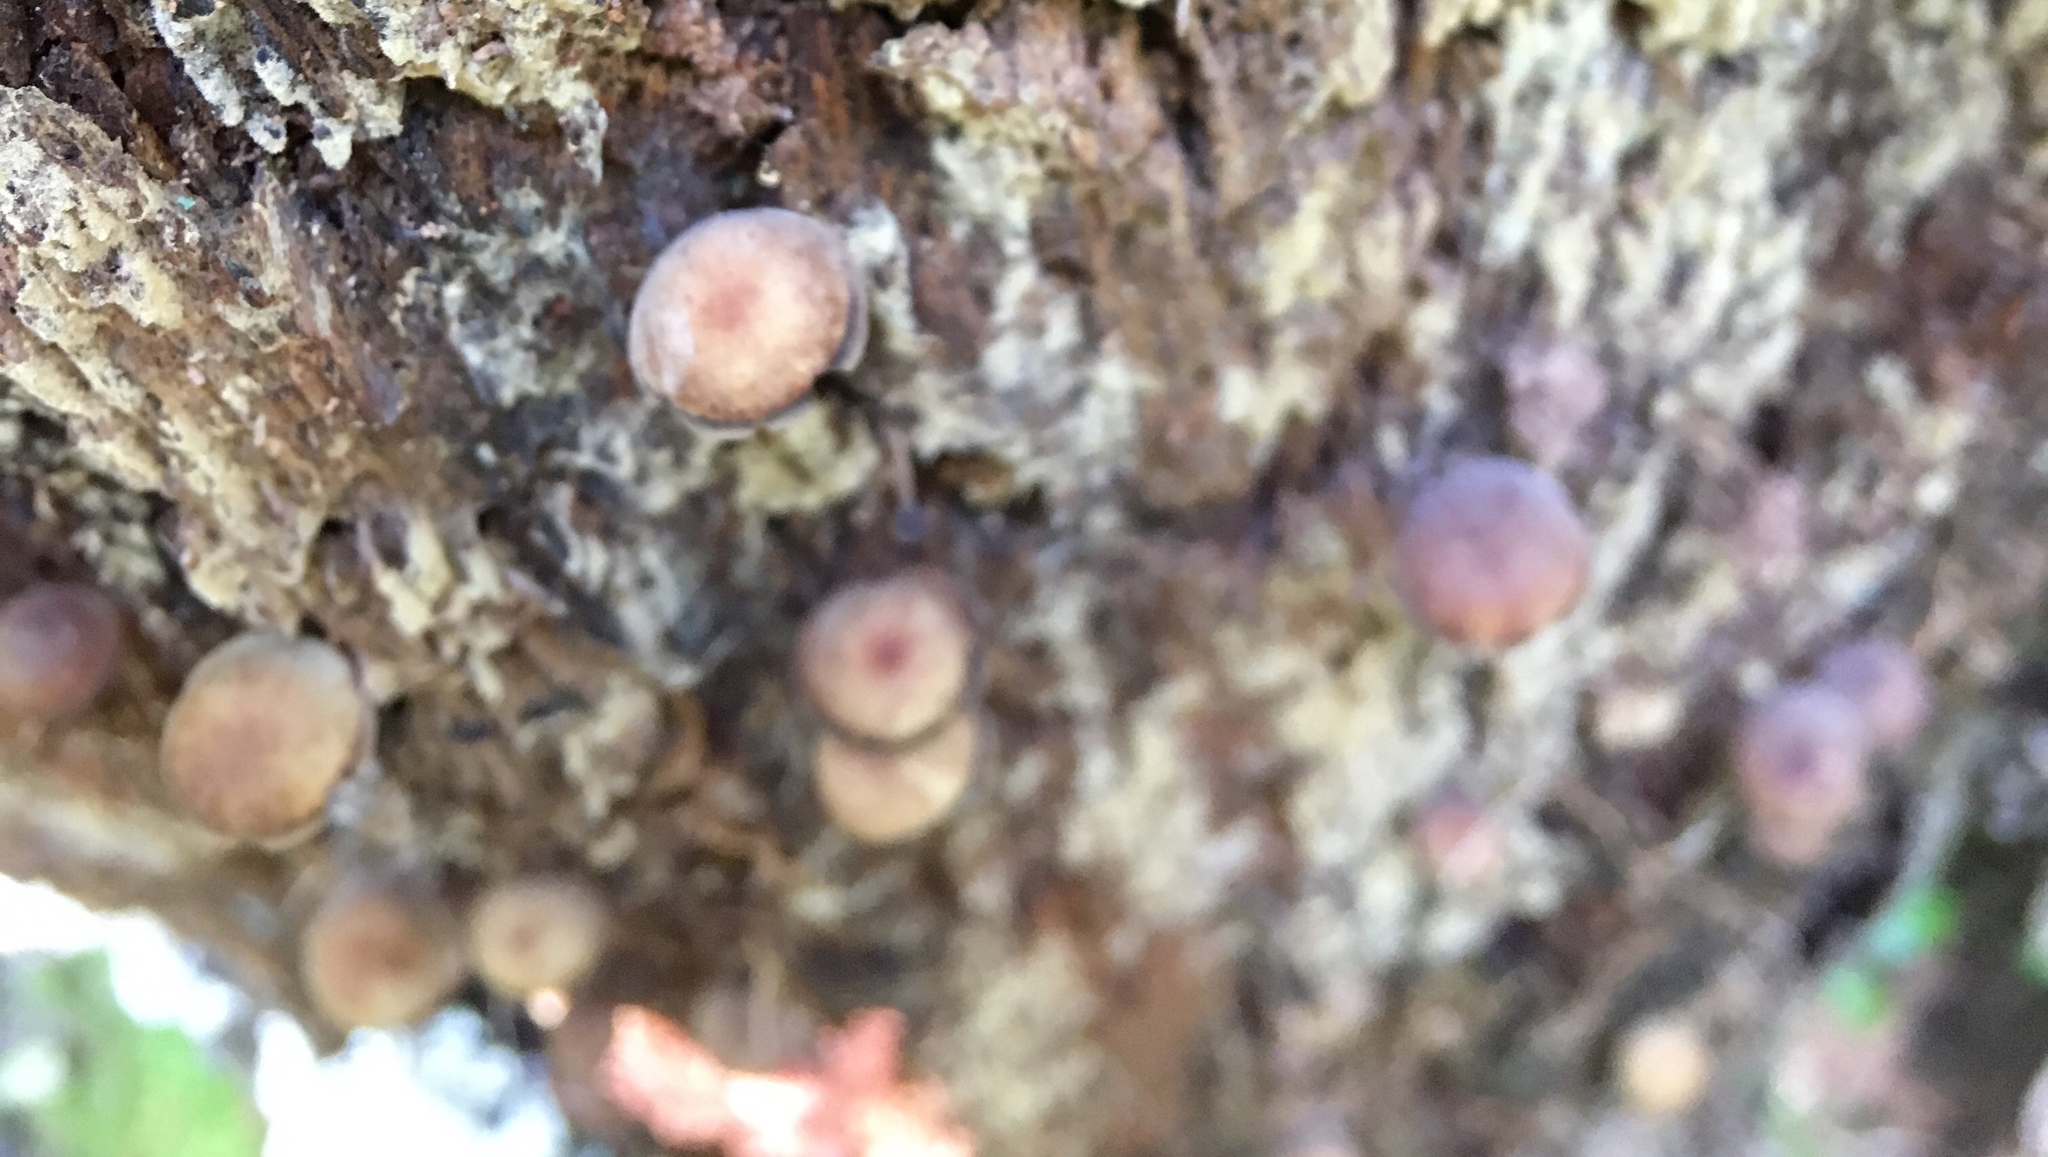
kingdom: Fungi
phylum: Basidiomycota
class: Agaricomycetes
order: Agaricales
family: Callistosporiaceae
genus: Callistosporium
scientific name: Callistosporium purpureomarginatum
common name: Purple-edged lute
